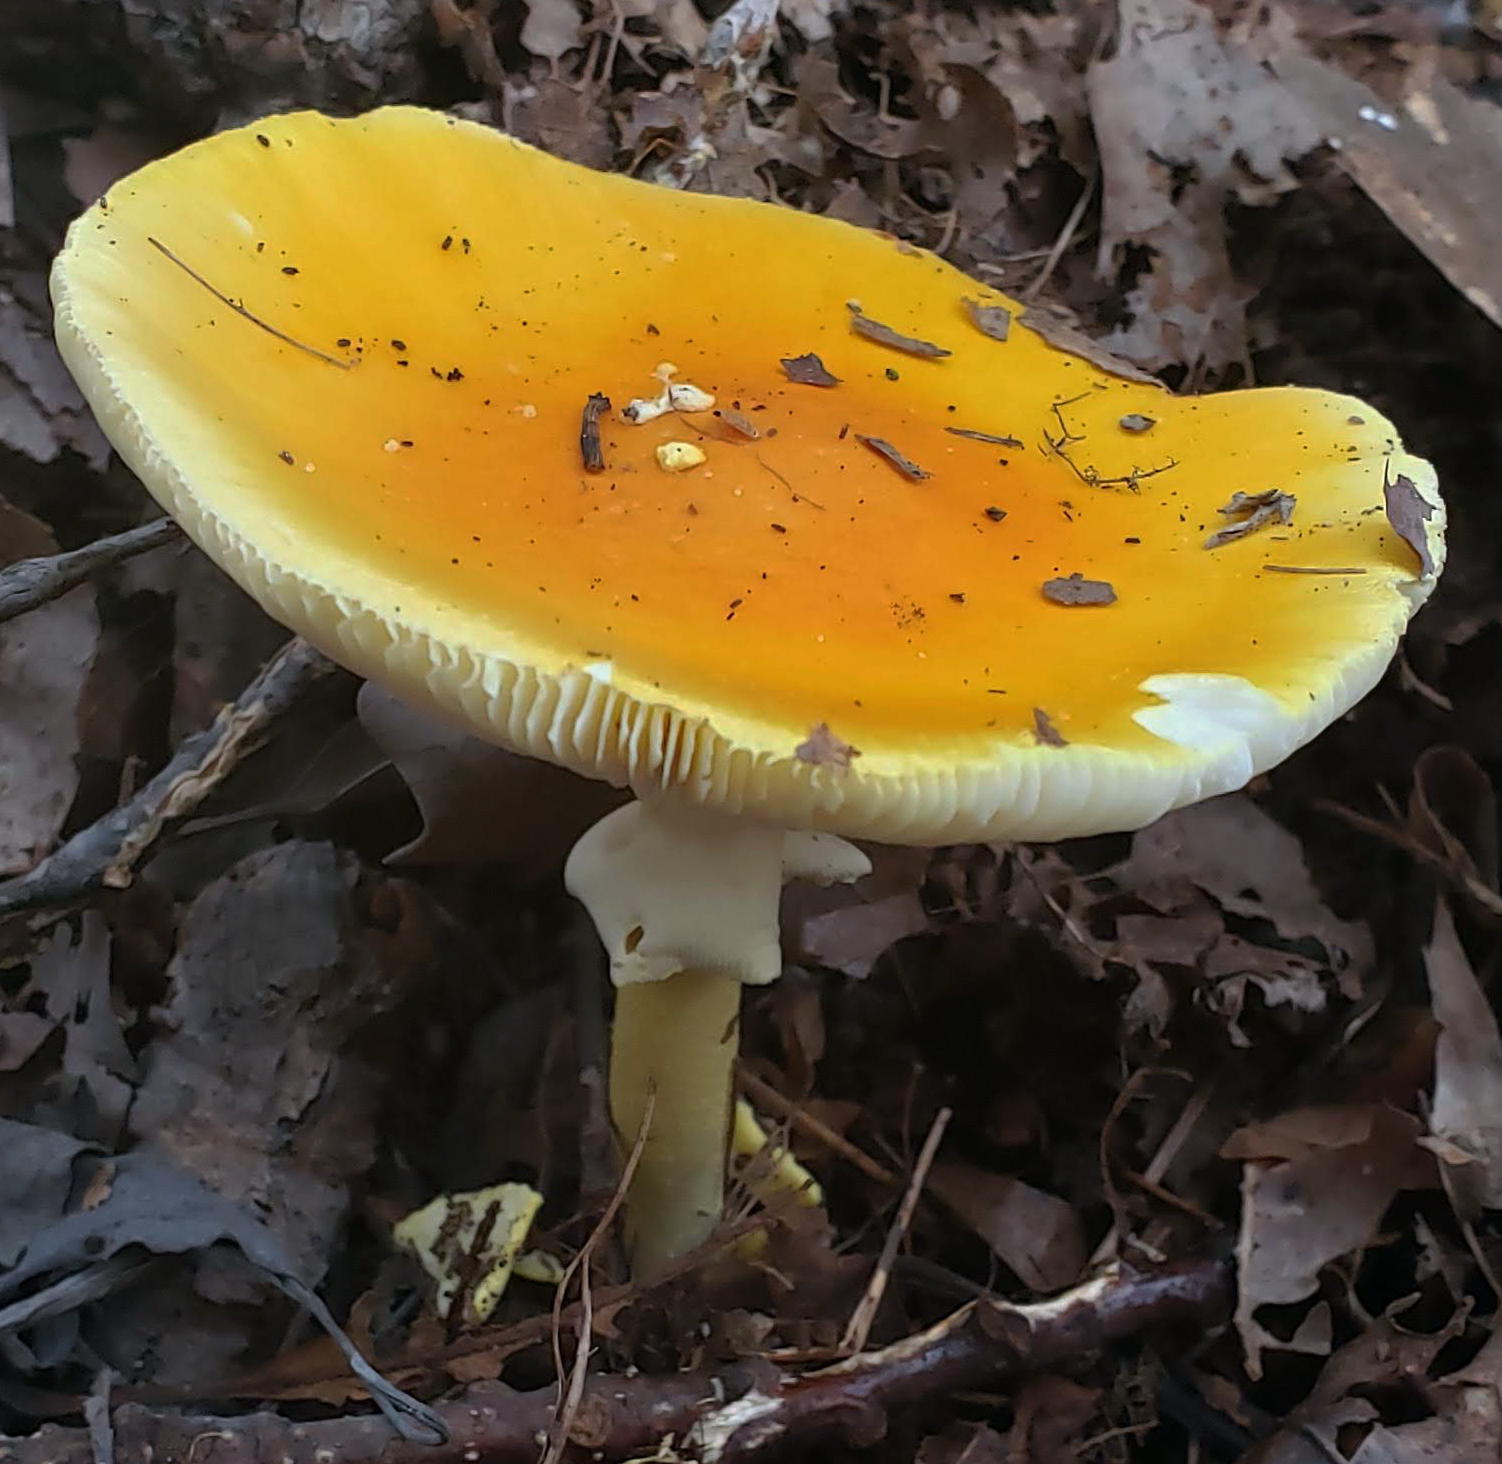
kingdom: Fungi
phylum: Basidiomycota
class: Agaricomycetes
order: Agaricales
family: Amanitaceae
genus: Amanita
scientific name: Amanita flavoconia
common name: Yellow patches
